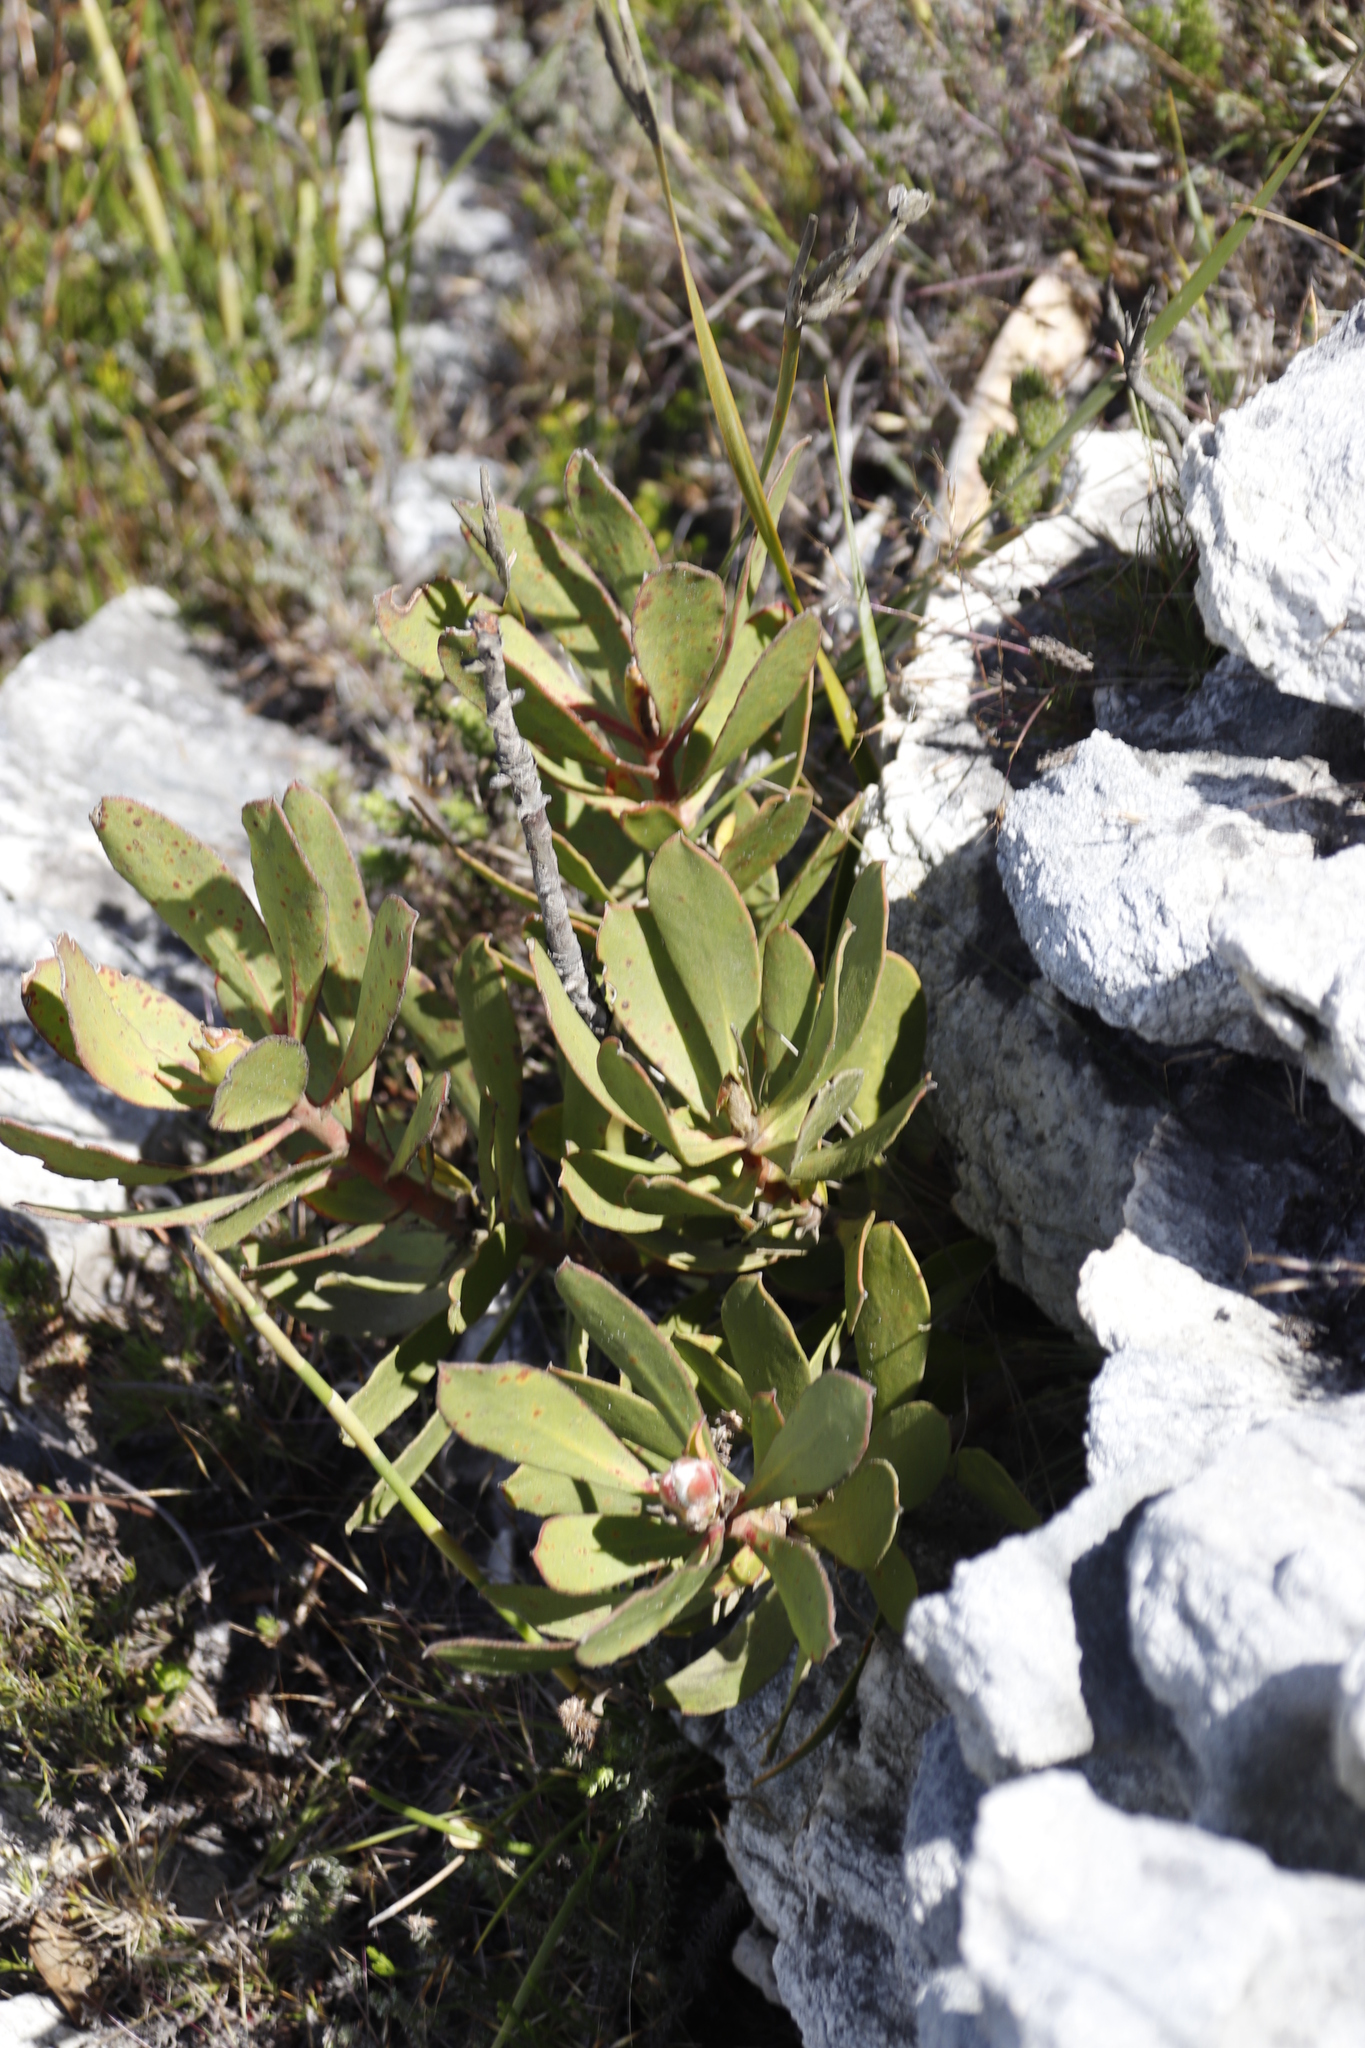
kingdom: Plantae
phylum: Tracheophyta
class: Magnoliopsida
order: Proteales
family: Proteaceae
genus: Protea
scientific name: Protea speciosa
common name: Brown-beard sugarbush
